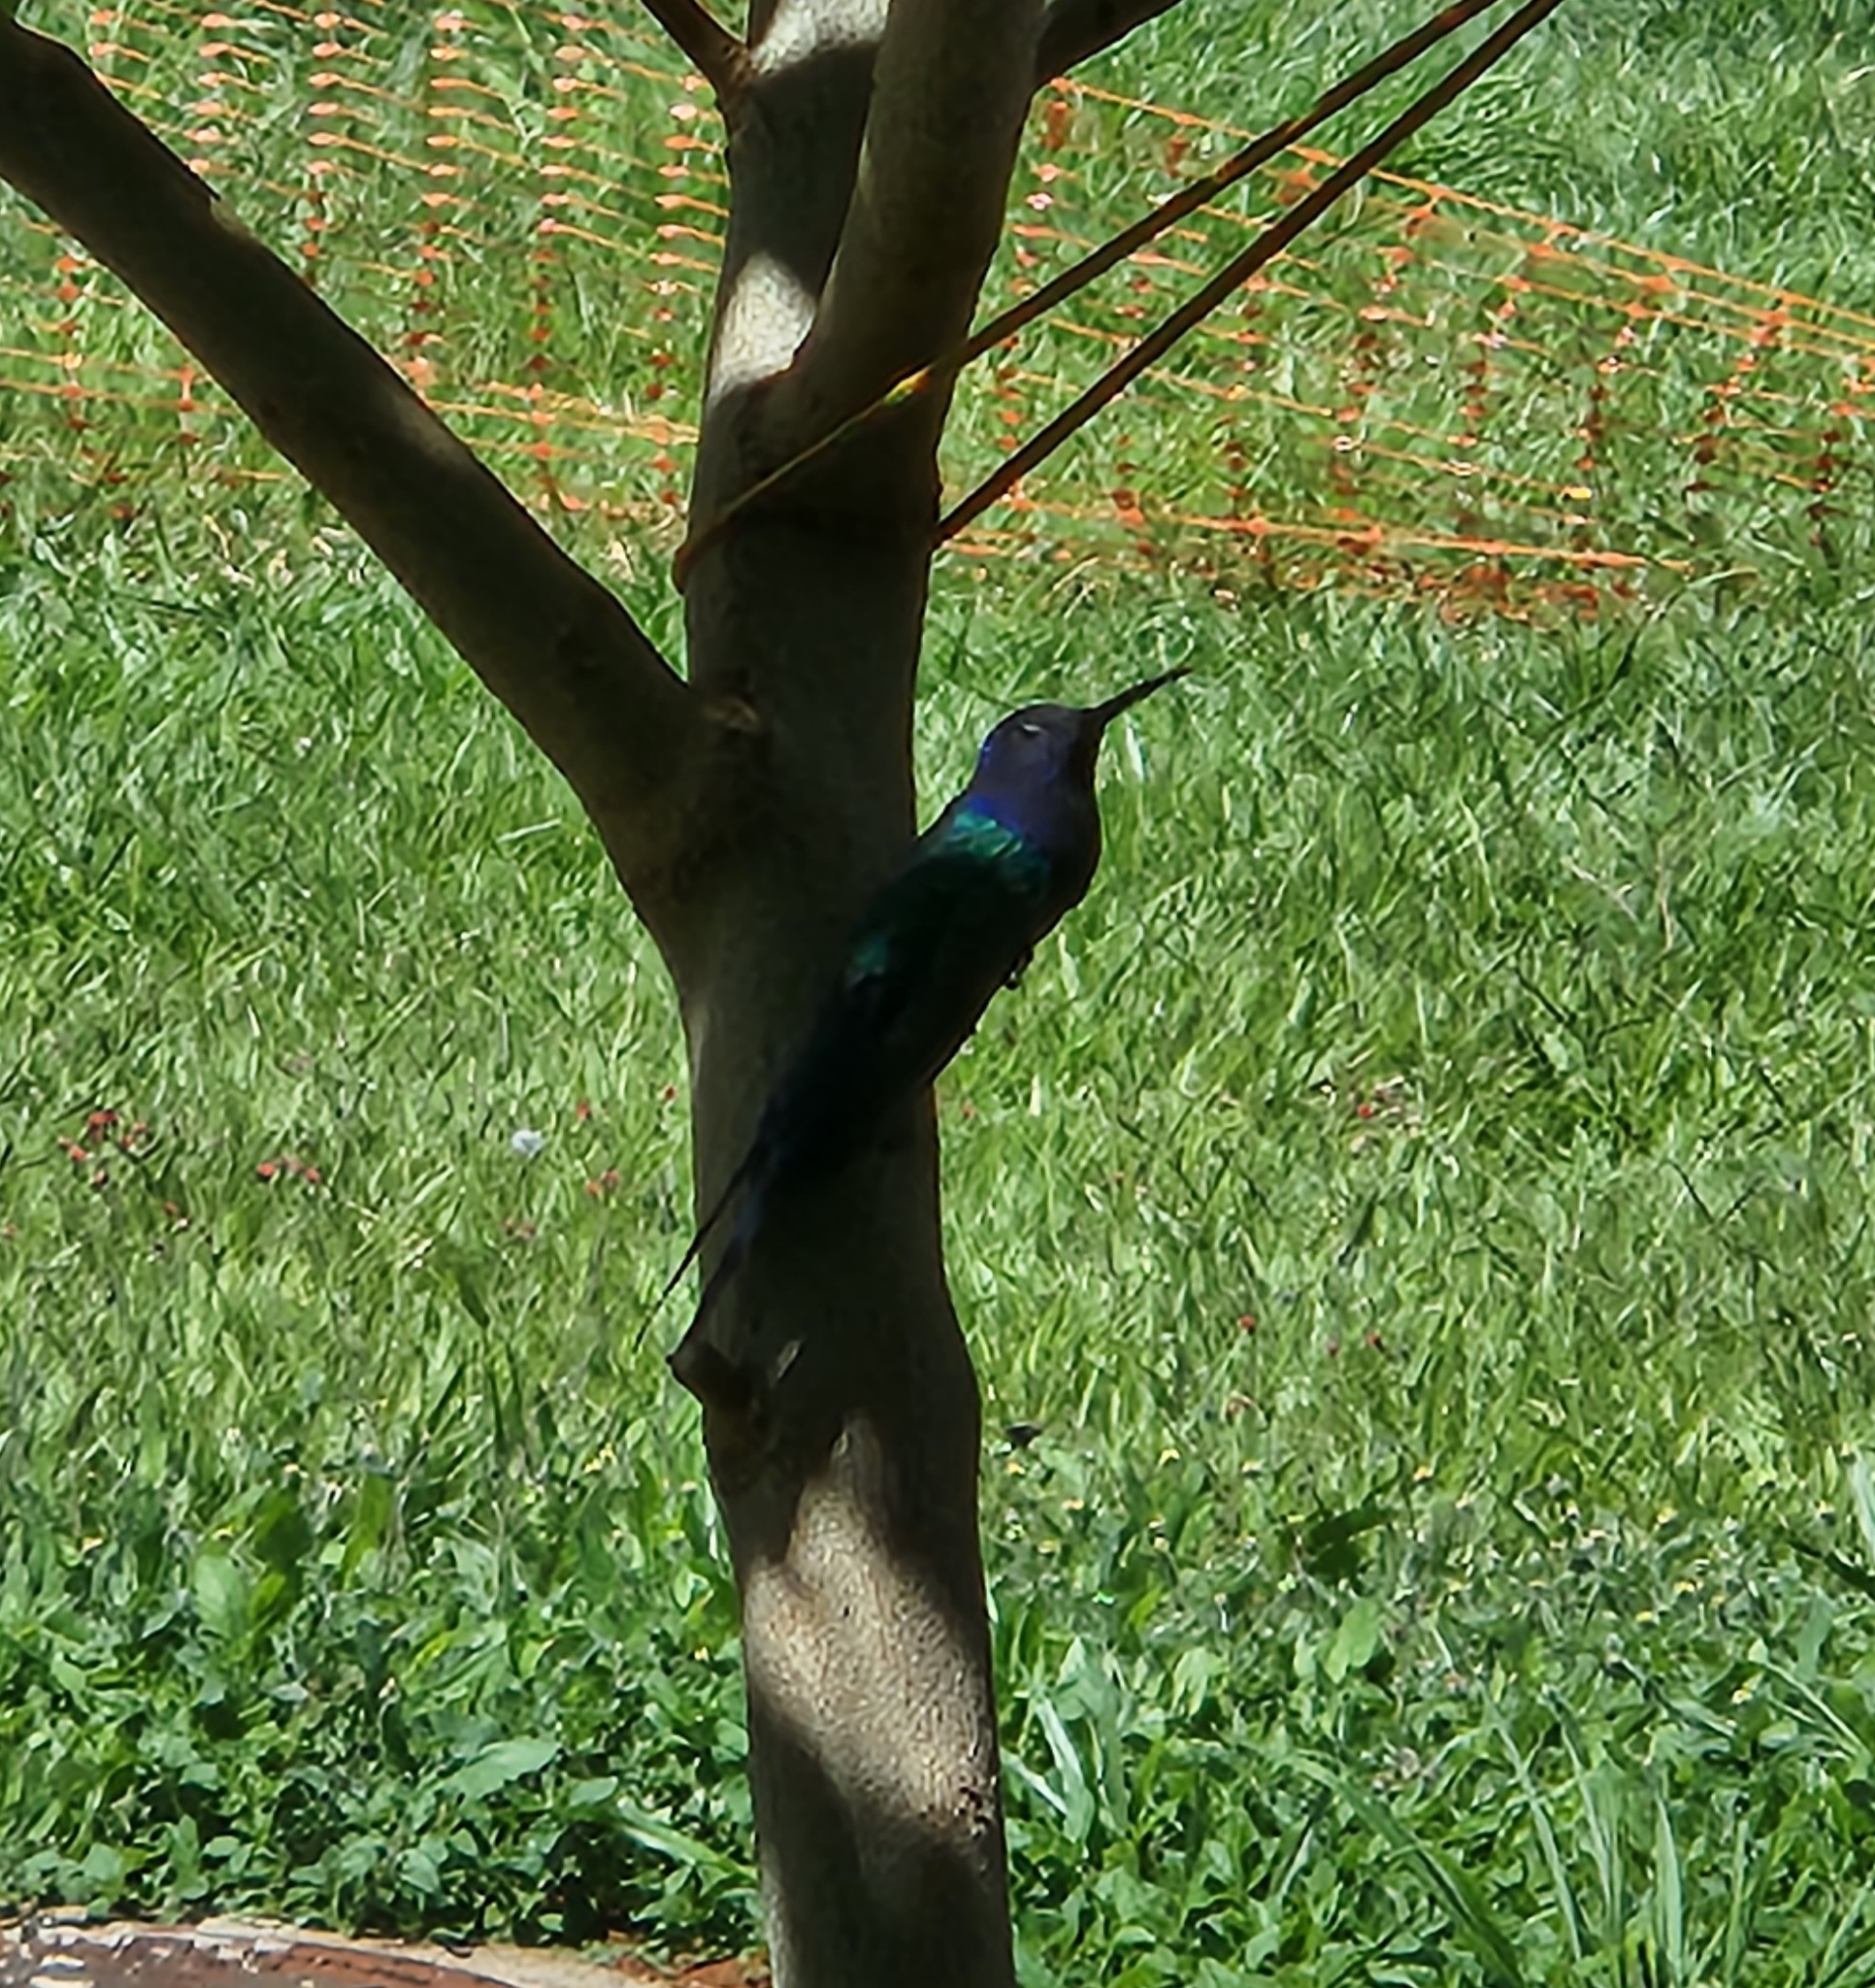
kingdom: Animalia
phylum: Chordata
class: Aves
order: Apodiformes
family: Trochilidae
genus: Eupetomena
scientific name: Eupetomena macroura
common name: Swallow-tailed hummingbird
